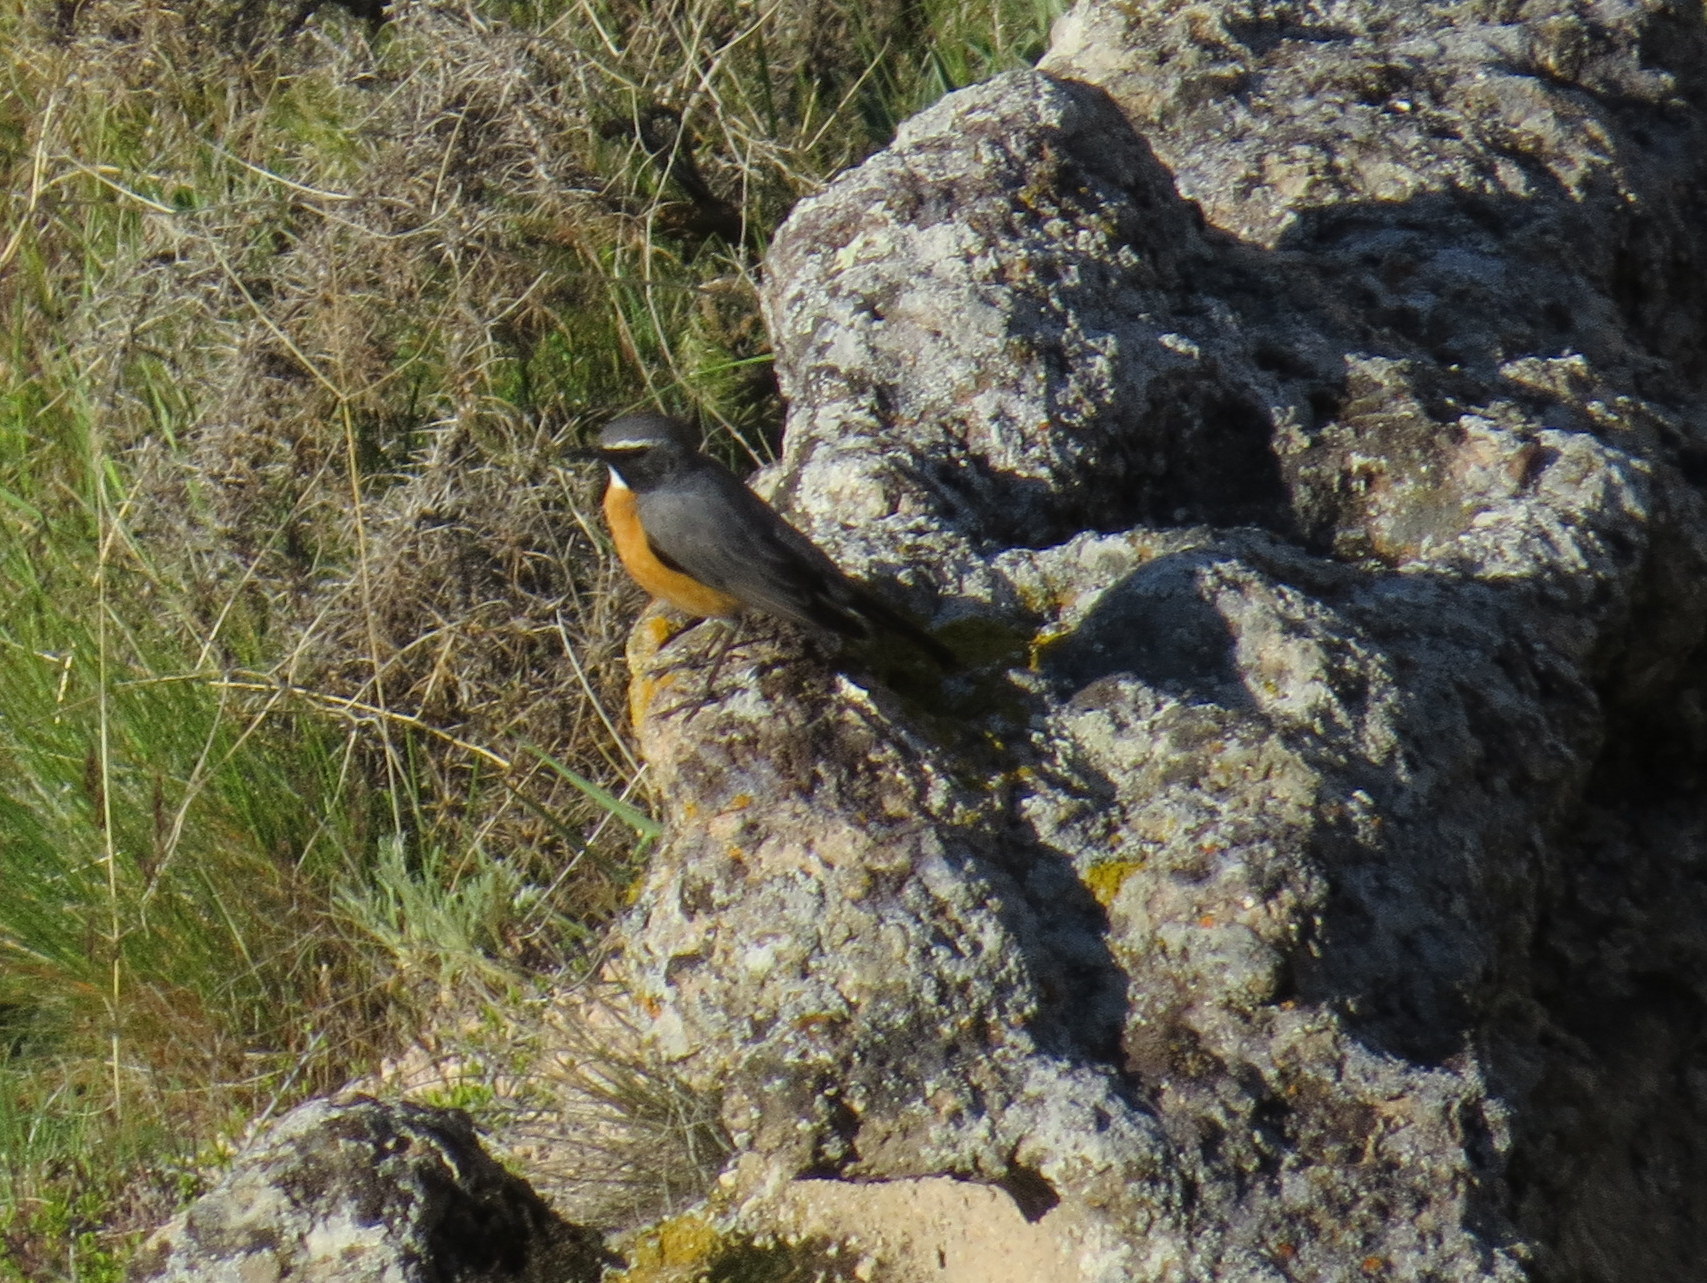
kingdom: Animalia
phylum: Chordata
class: Aves
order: Passeriformes
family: Muscicapidae
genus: Irania
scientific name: Irania gutturalis
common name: White-throated robin
